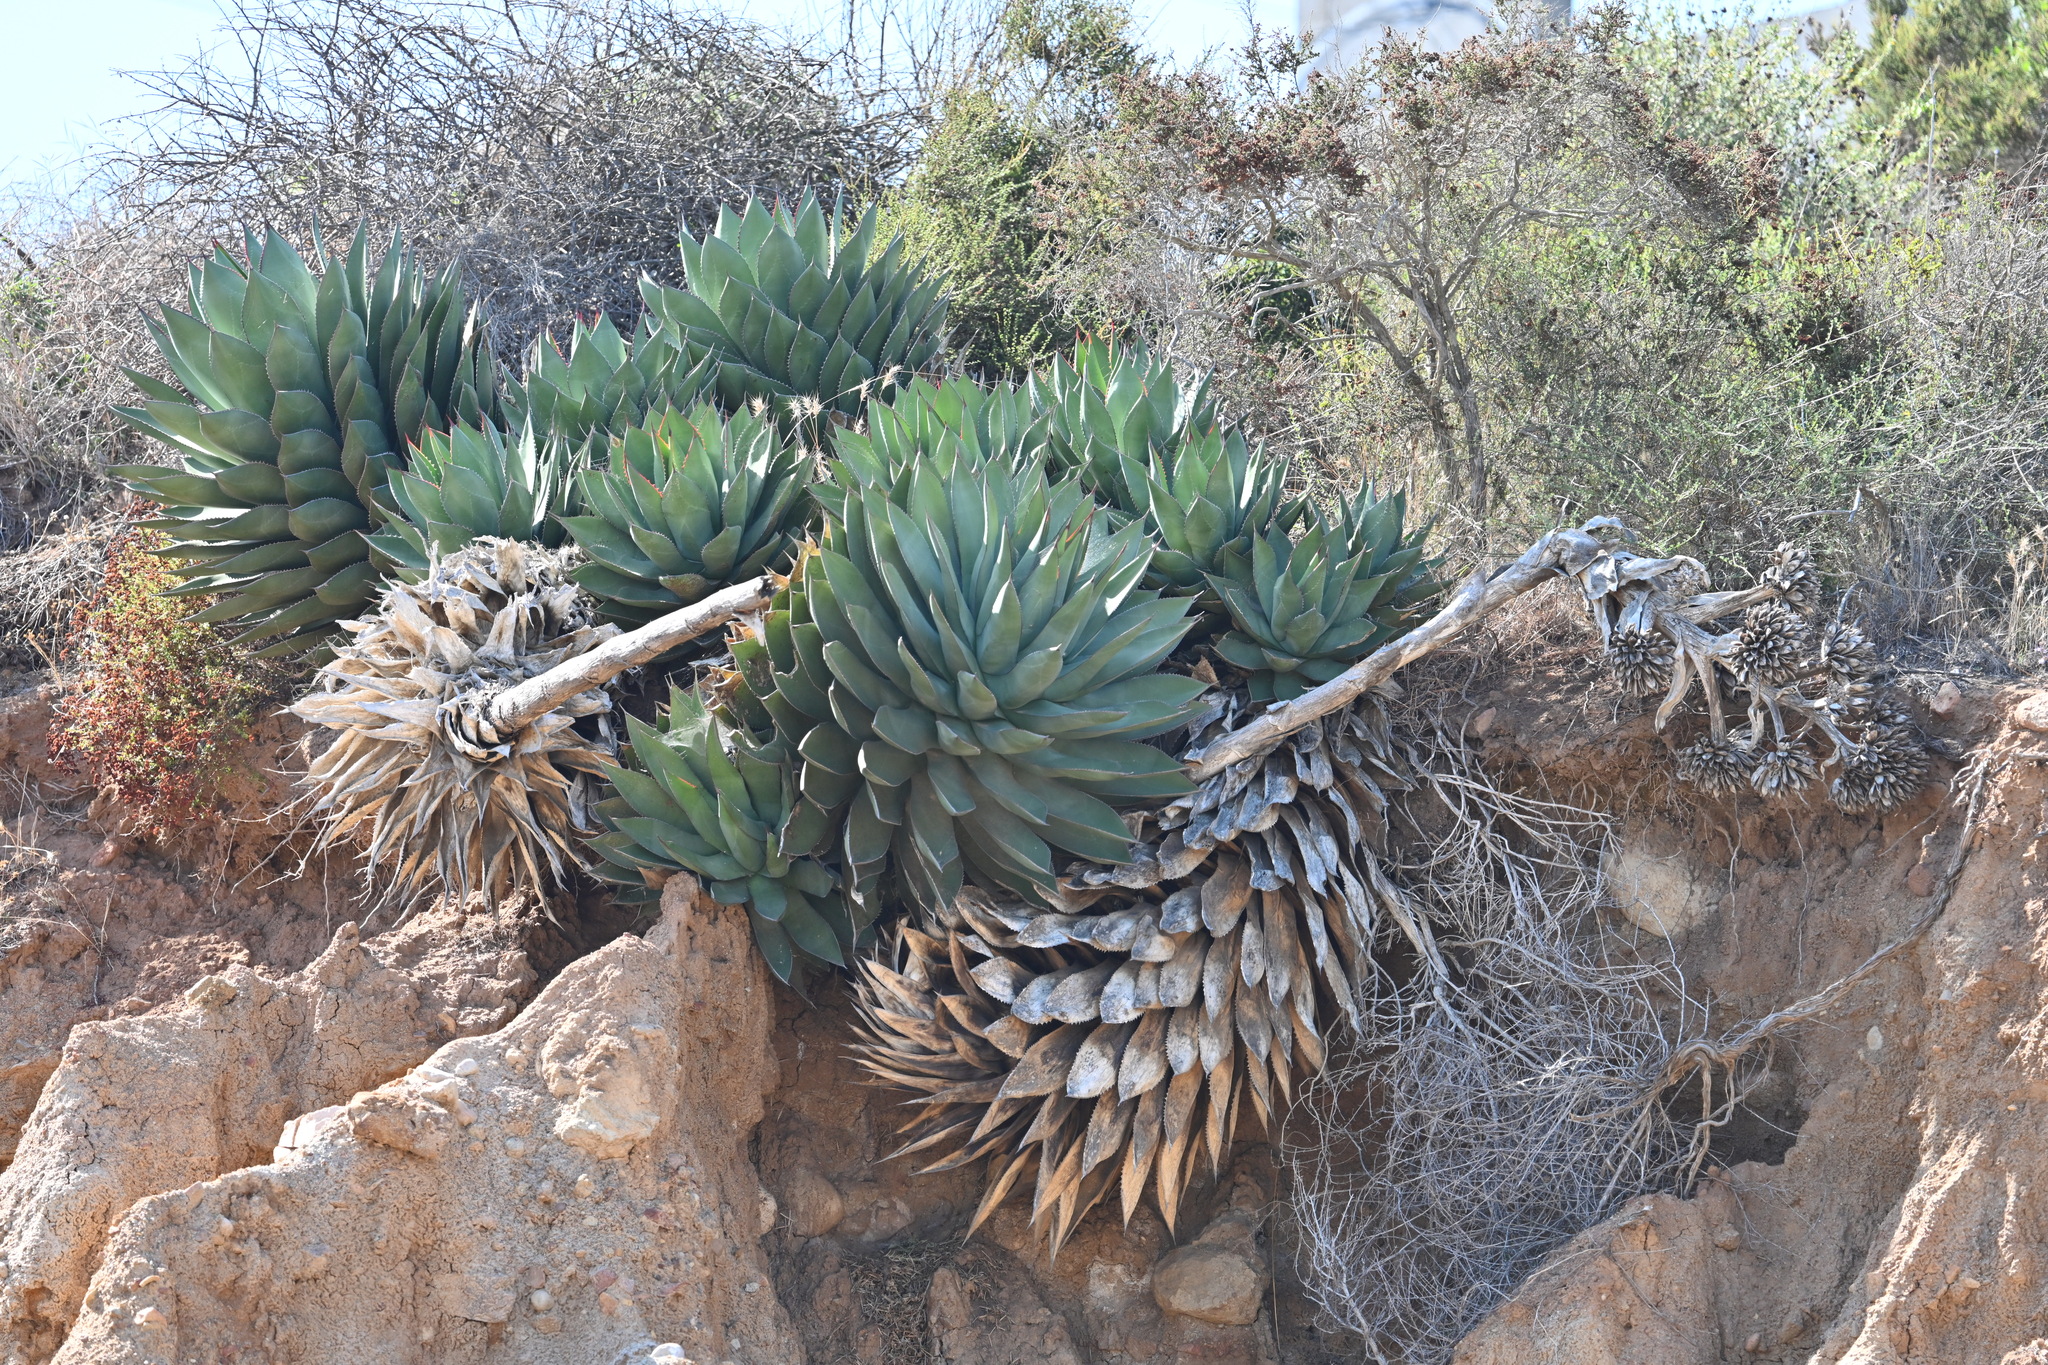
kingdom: Plantae
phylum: Tracheophyta
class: Liliopsida
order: Asparagales
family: Asparagaceae
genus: Agave
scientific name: Agave shawii
